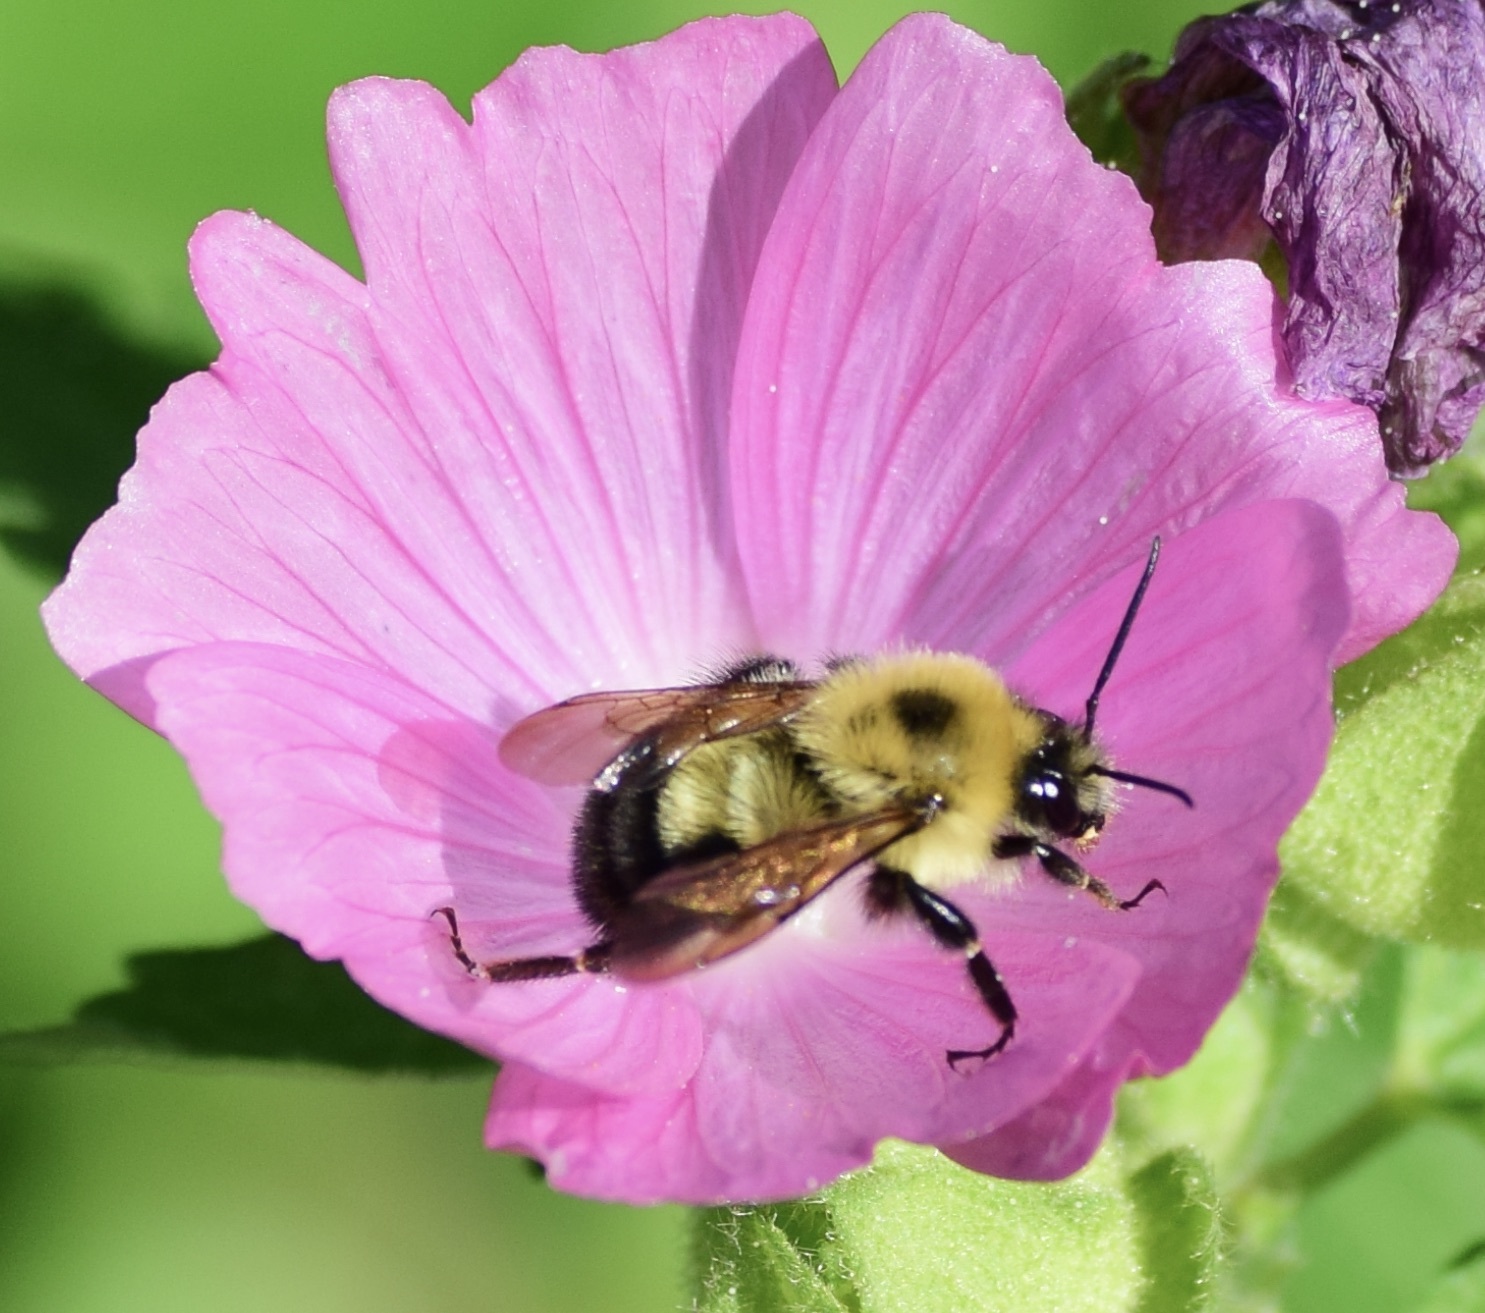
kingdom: Animalia
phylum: Arthropoda
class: Insecta
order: Hymenoptera
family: Apidae
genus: Bombus
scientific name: Bombus bimaculatus
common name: Two-spotted bumble bee
